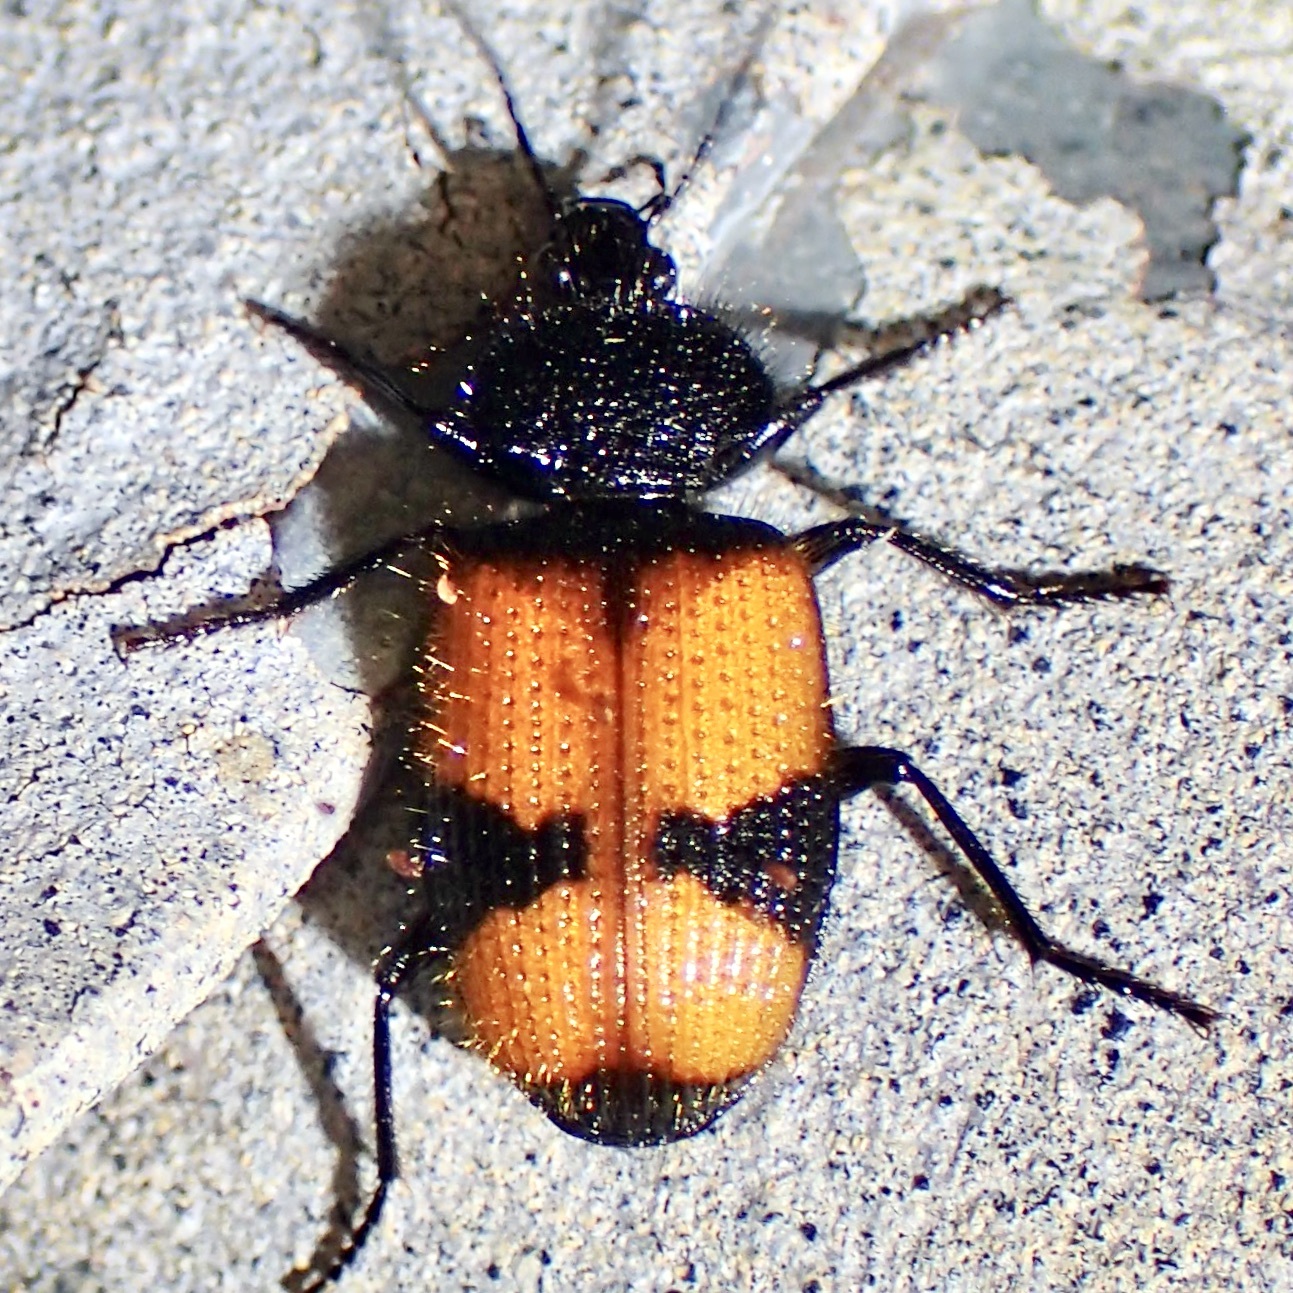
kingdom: Animalia
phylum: Arthropoda
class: Insecta
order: Coleoptera
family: Carabidae
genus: Panagaeus
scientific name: Panagaeus sallei
